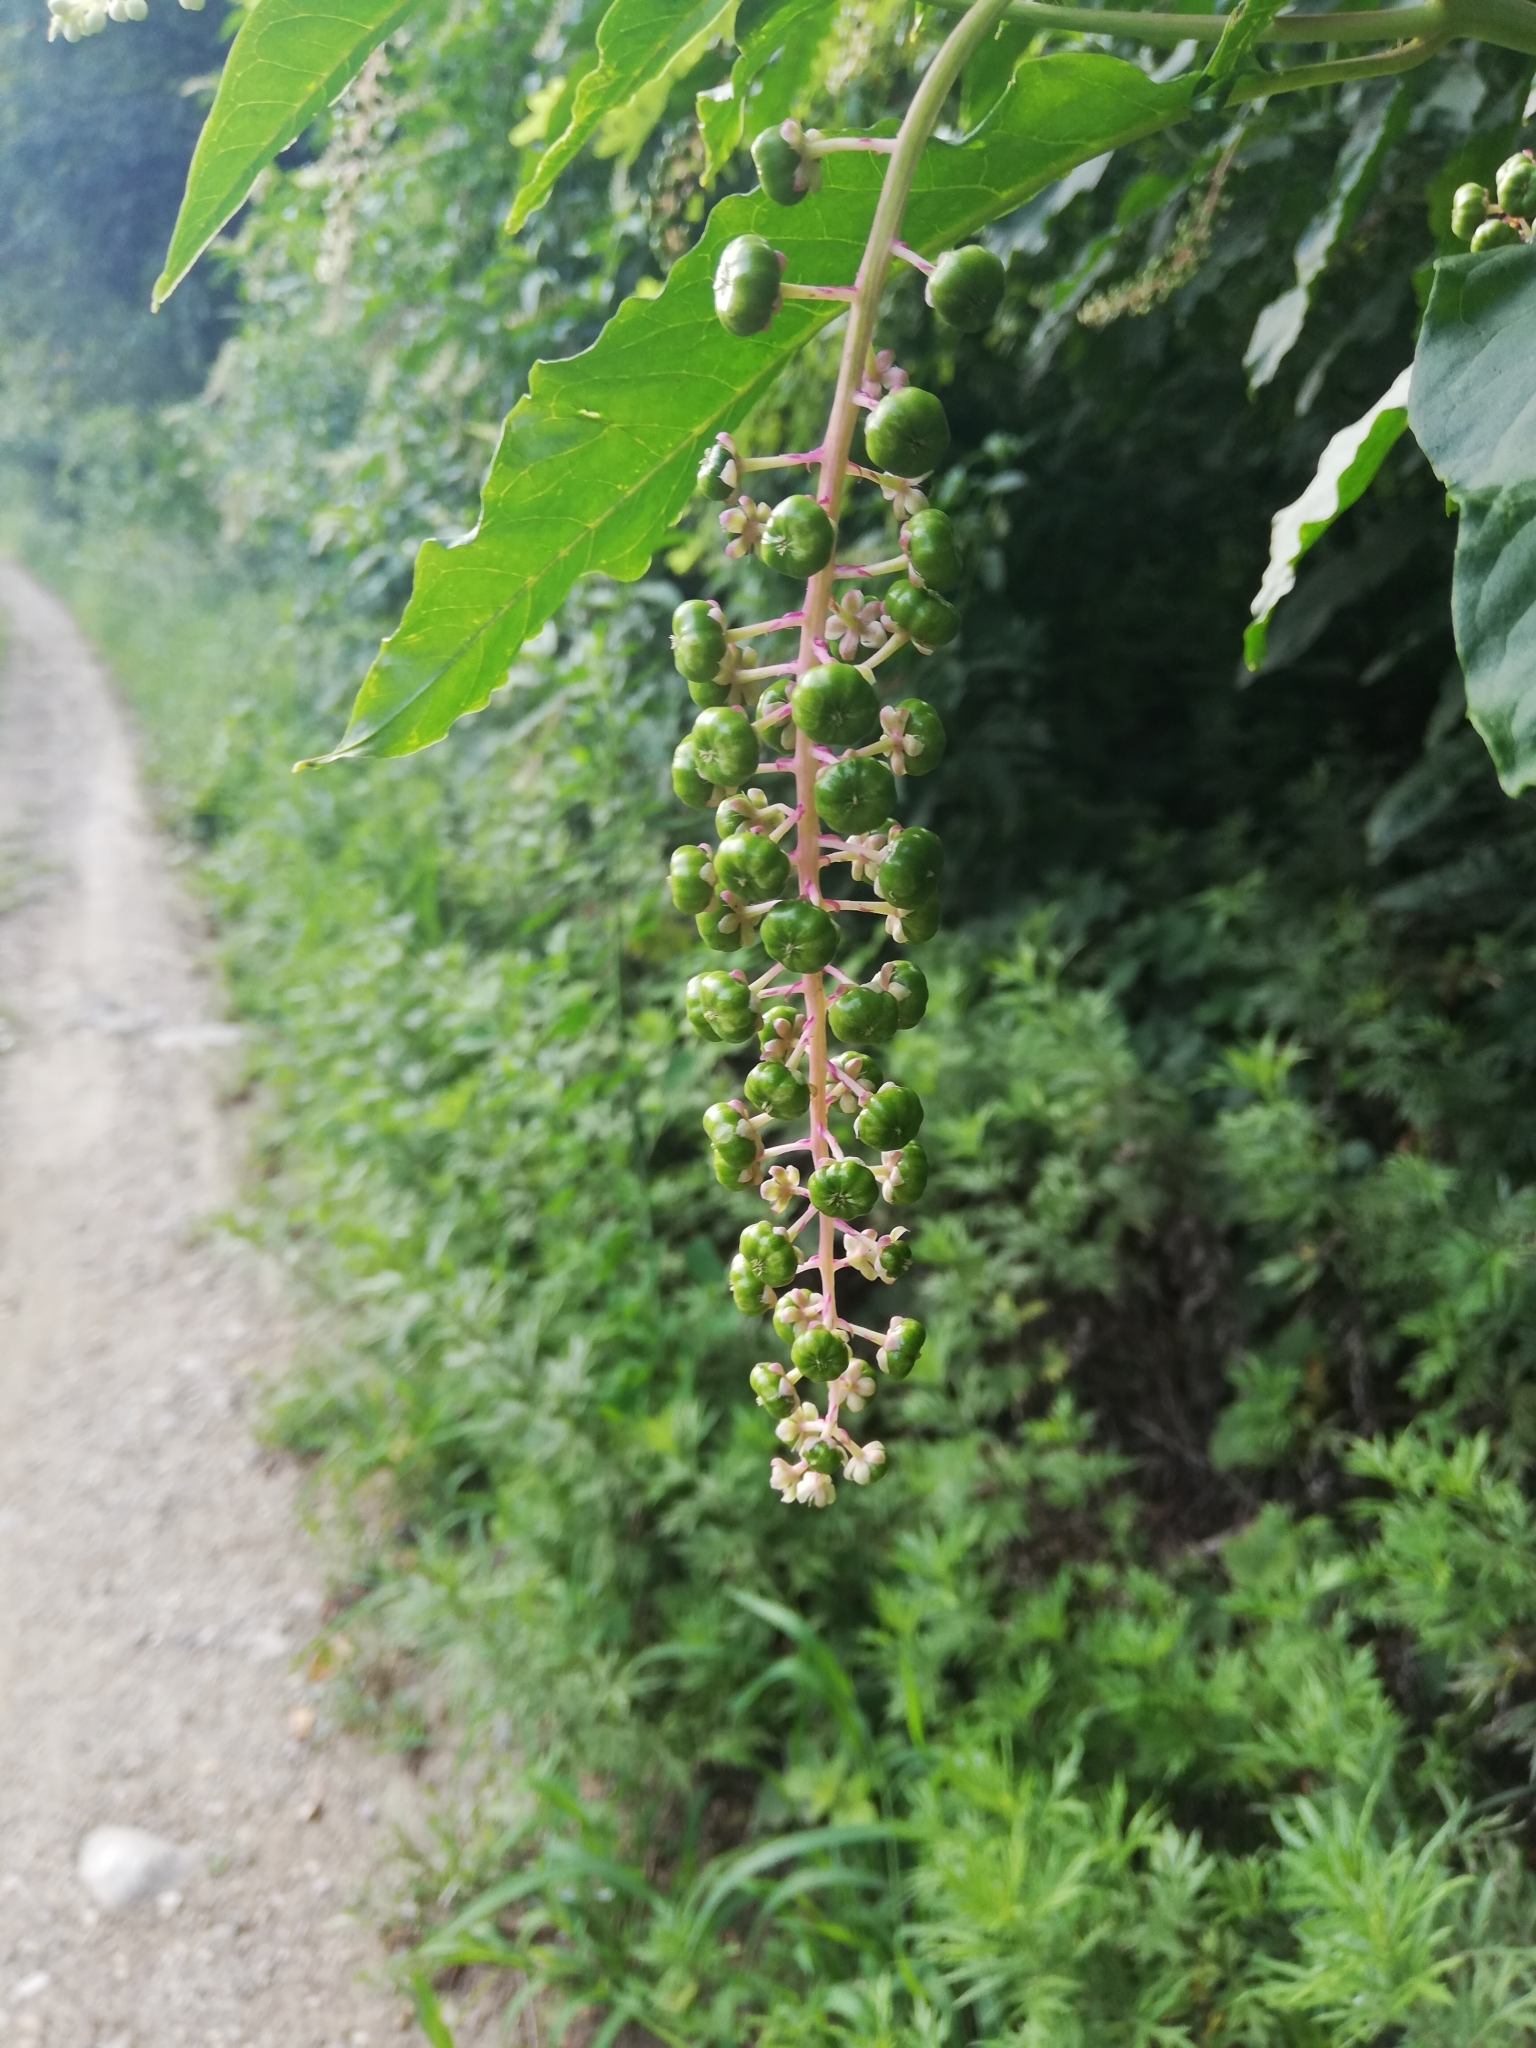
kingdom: Plantae
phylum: Tracheophyta
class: Magnoliopsida
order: Caryophyllales
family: Phytolaccaceae
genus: Phytolacca
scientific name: Phytolacca americana
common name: American pokeweed
